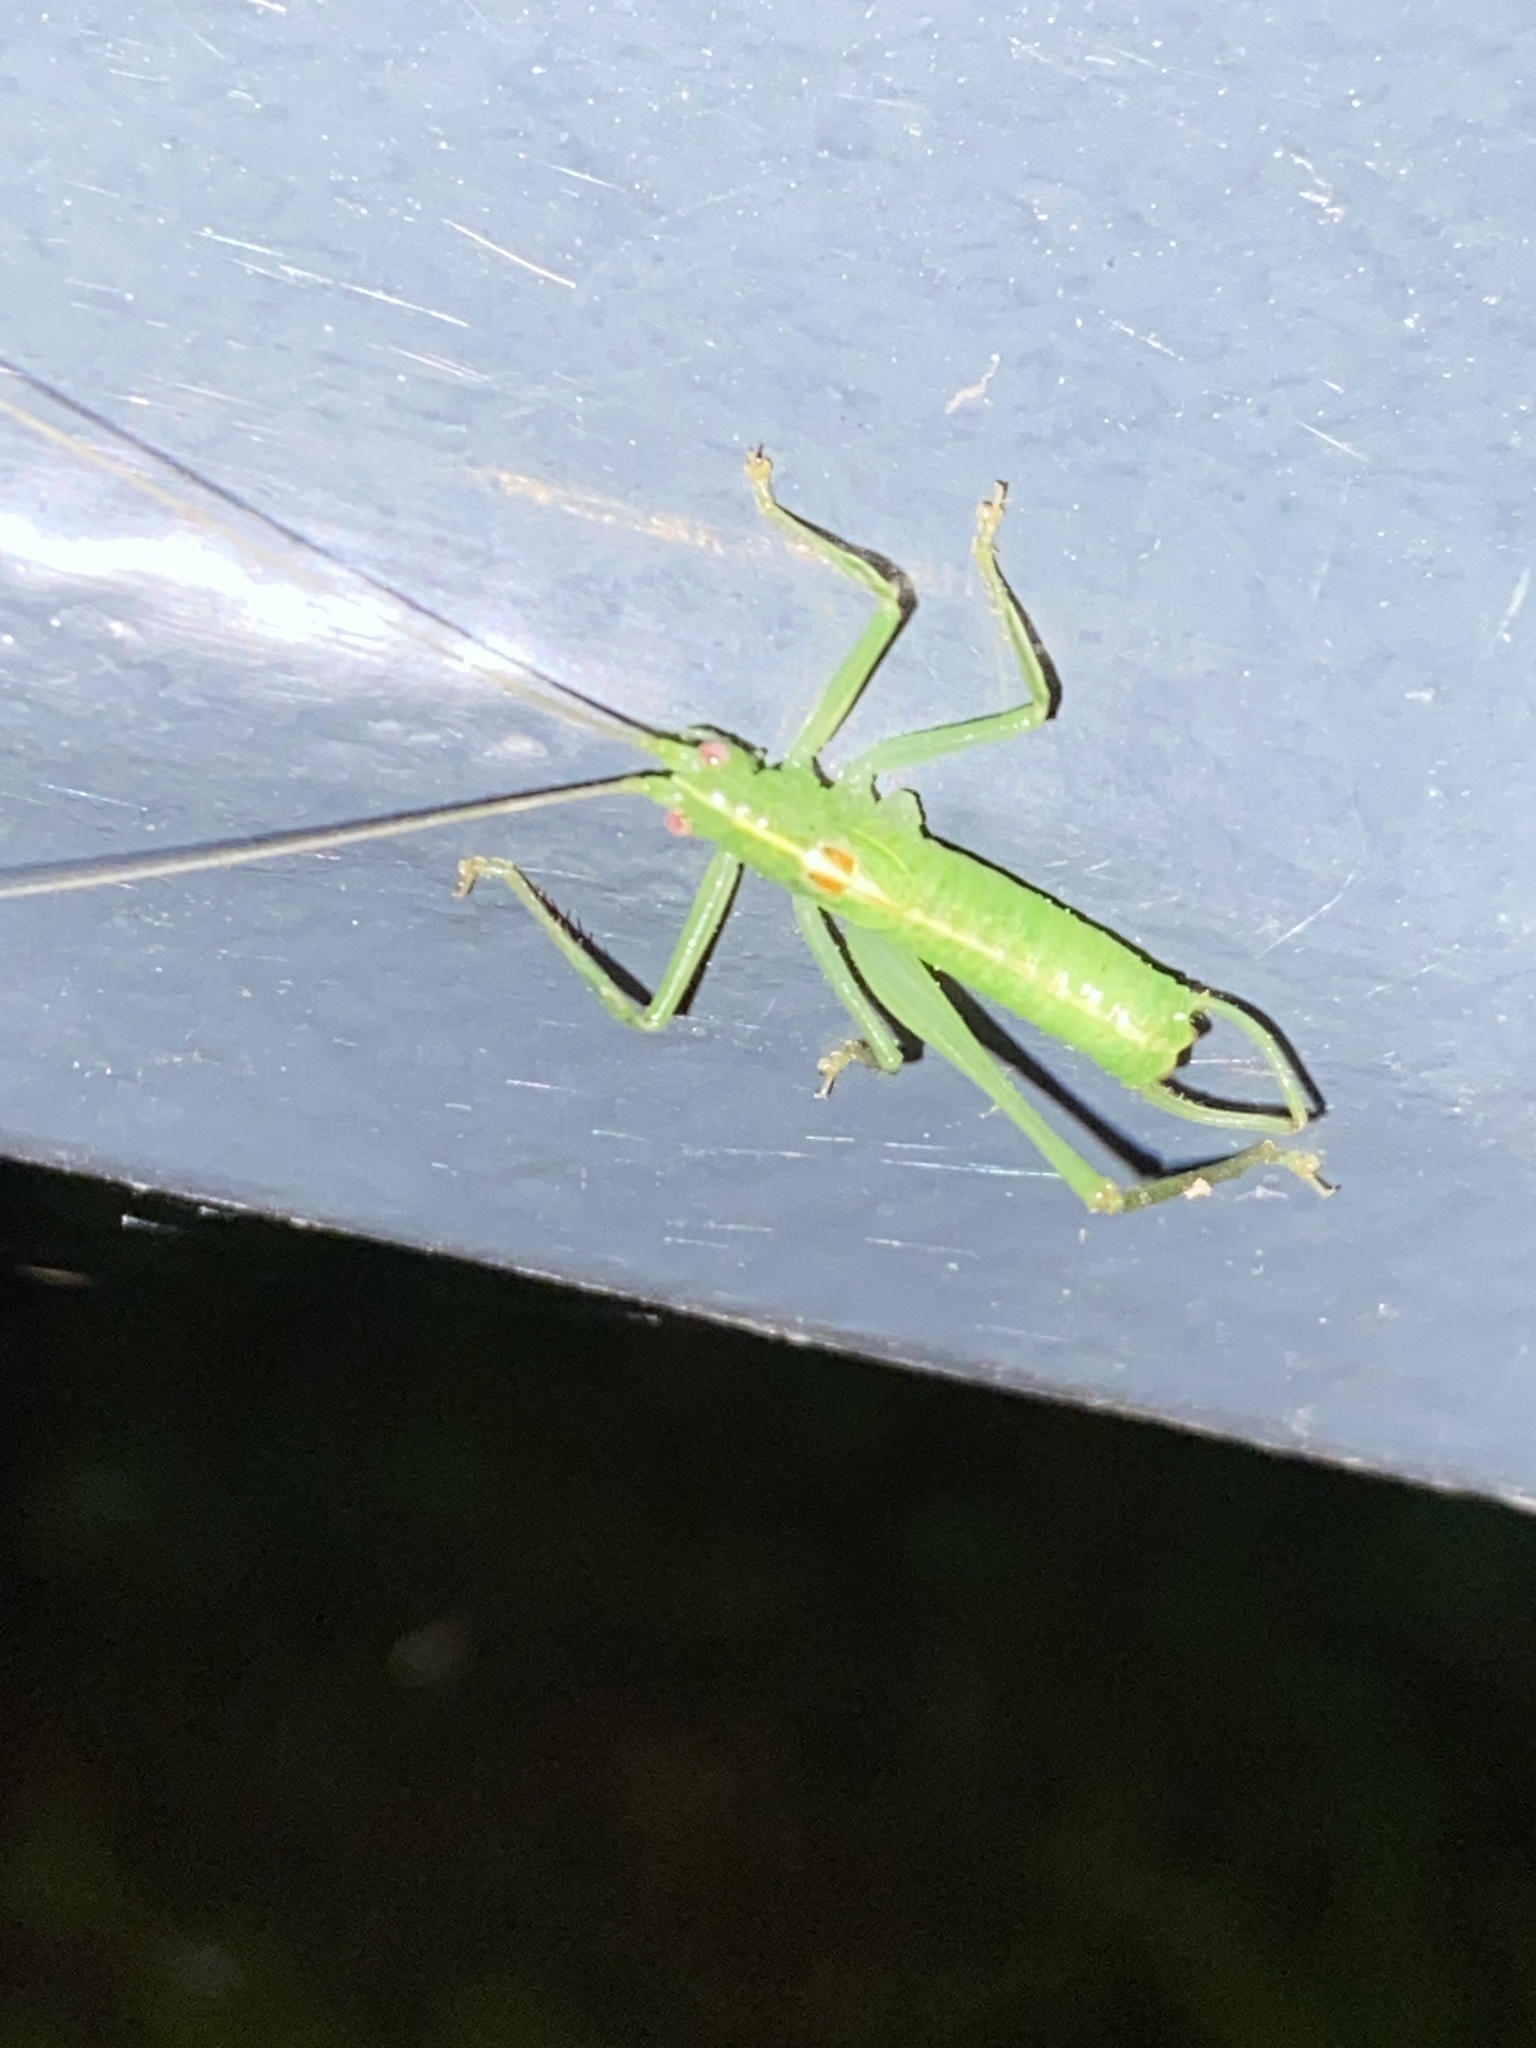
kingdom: Animalia
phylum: Arthropoda
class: Insecta
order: Orthoptera
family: Tettigoniidae
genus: Meconema
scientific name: Meconema meridionale
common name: Southern oak bush-cricket
